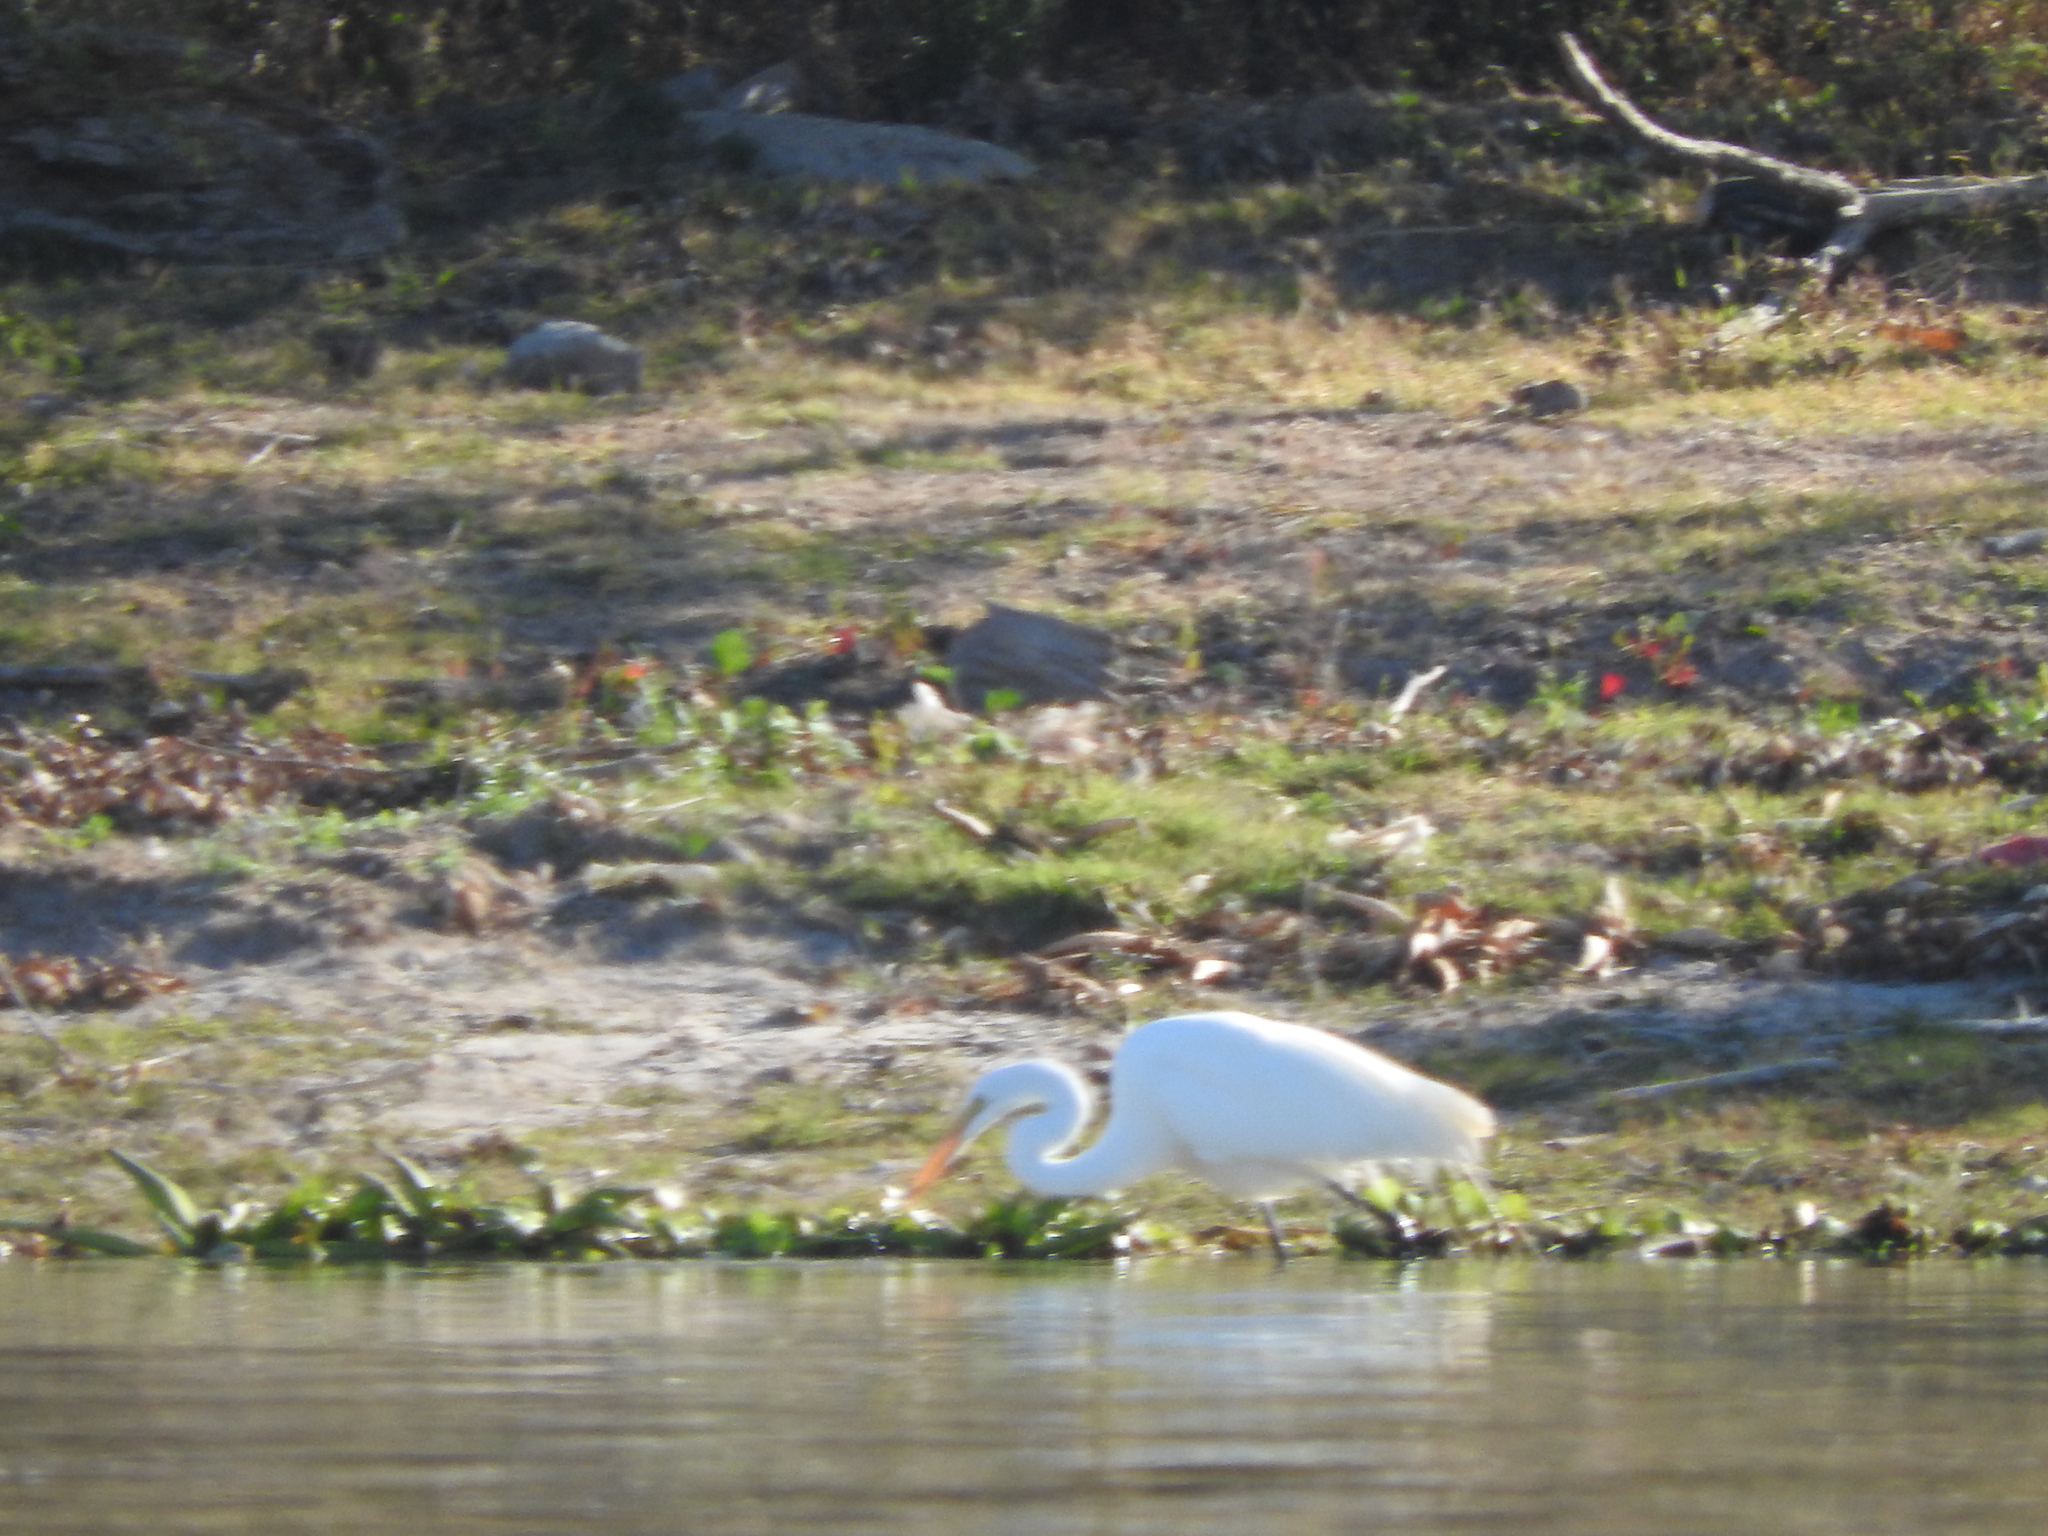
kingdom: Animalia
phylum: Chordata
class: Aves
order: Pelecaniformes
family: Ardeidae
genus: Ardea
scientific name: Ardea alba
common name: Great egret
